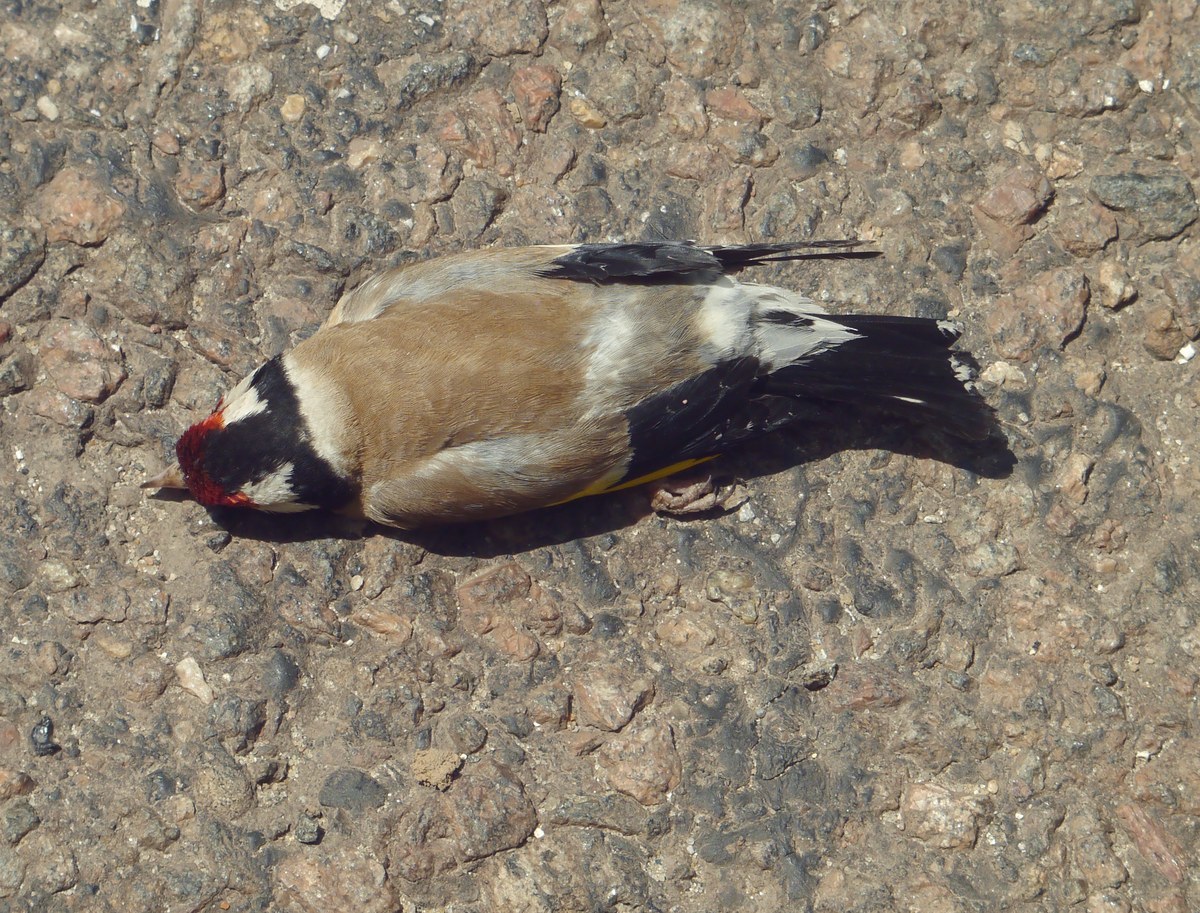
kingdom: Animalia
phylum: Chordata
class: Aves
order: Passeriformes
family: Fringillidae
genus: Carduelis
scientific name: Carduelis carduelis
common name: European goldfinch
